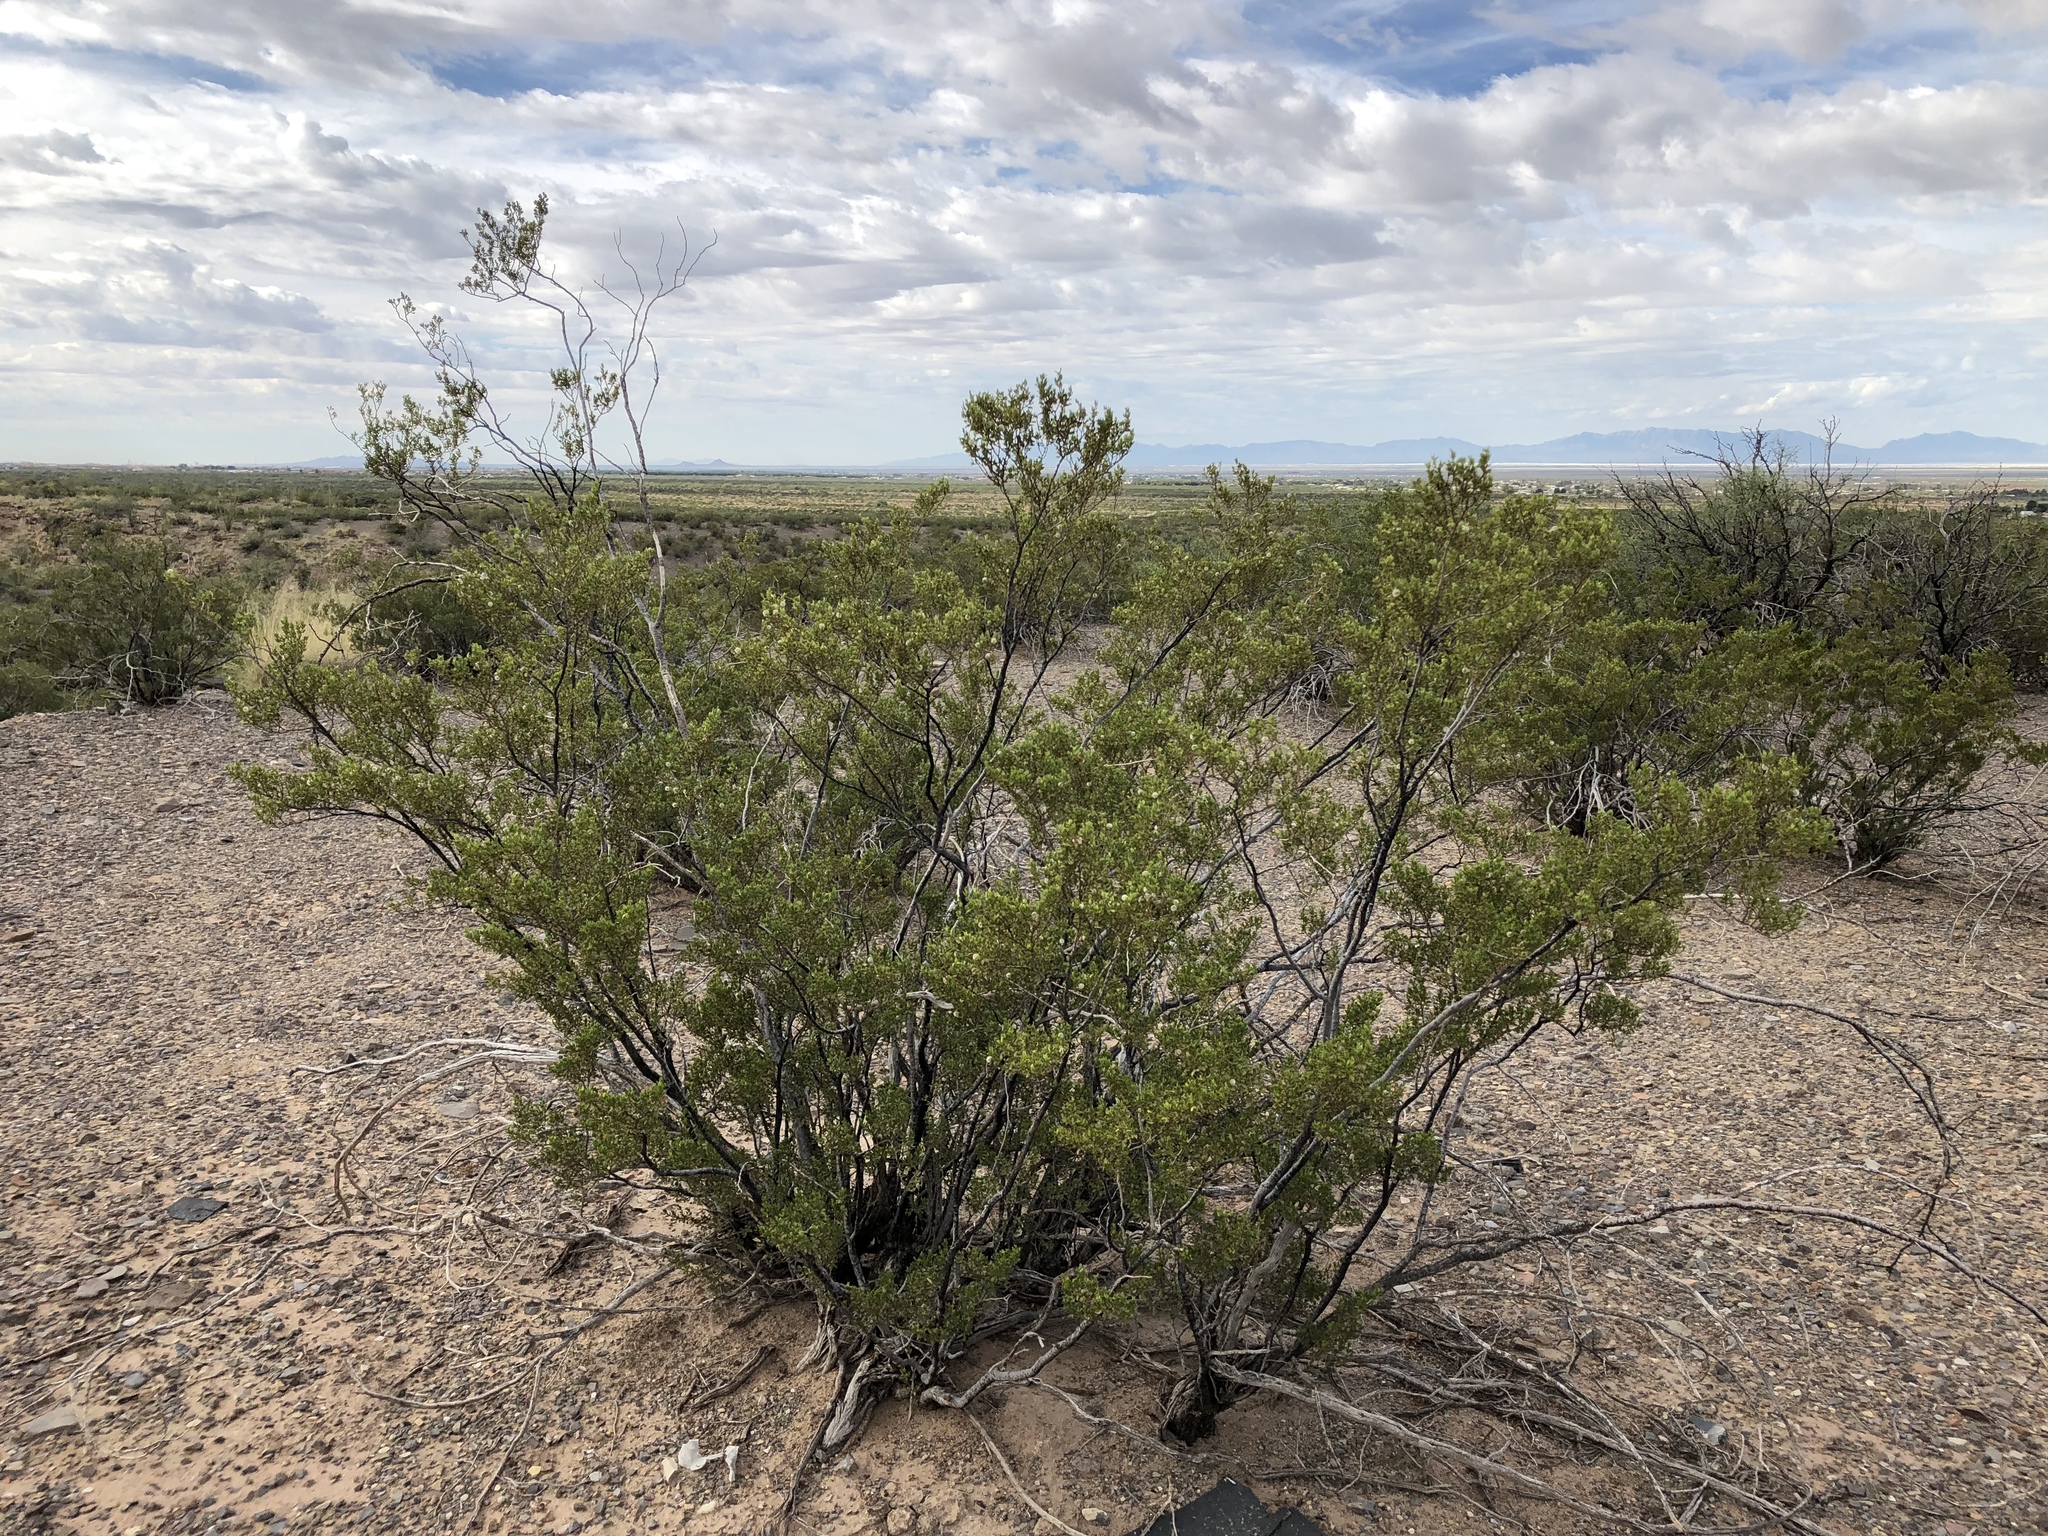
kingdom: Plantae
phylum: Tracheophyta
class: Magnoliopsida
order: Zygophyllales
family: Zygophyllaceae
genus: Larrea
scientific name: Larrea tridentata
